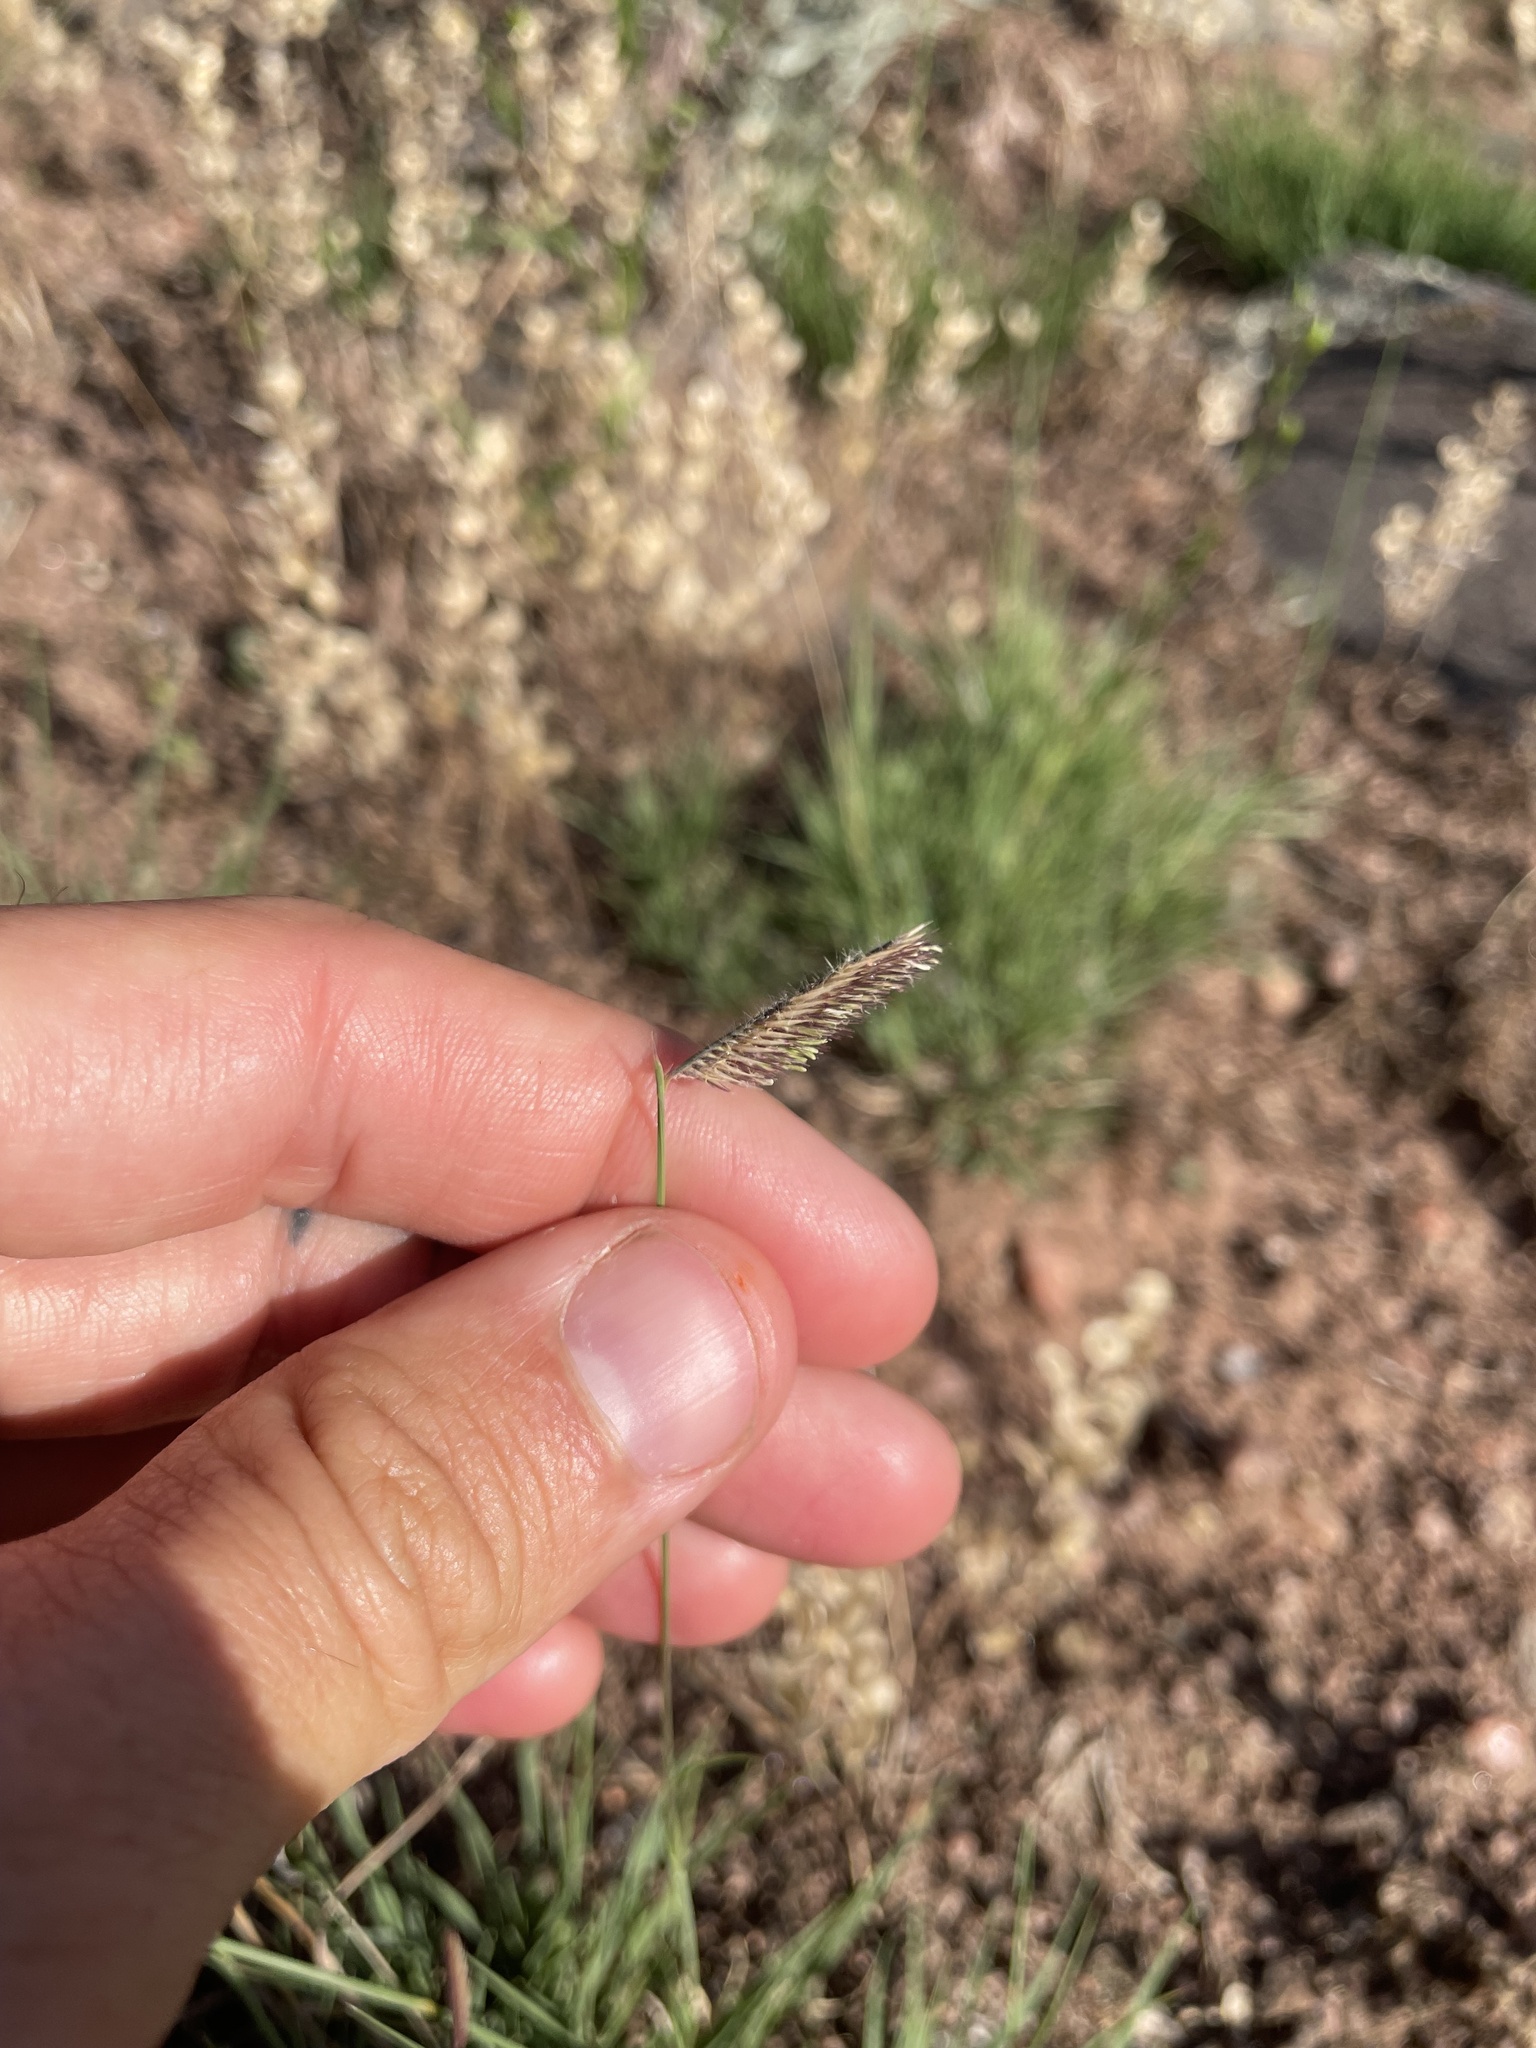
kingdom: Plantae
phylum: Tracheophyta
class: Liliopsida
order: Poales
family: Poaceae
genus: Bouteloua
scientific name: Bouteloua gracilis
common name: Blue grama
